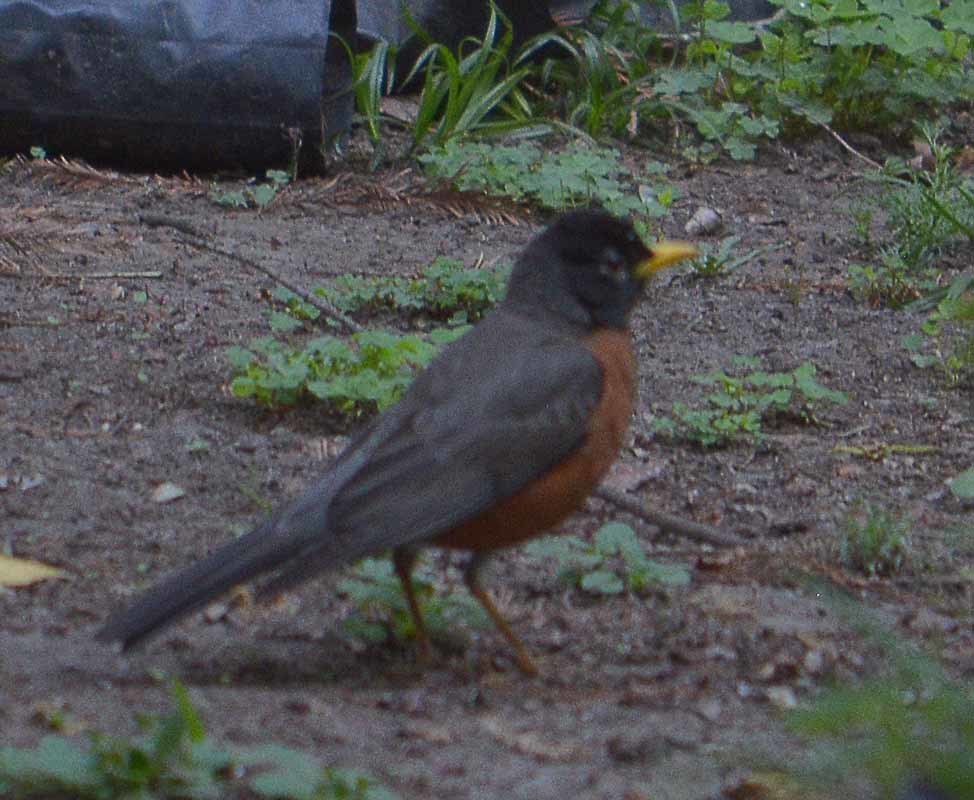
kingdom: Animalia
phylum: Chordata
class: Aves
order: Passeriformes
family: Turdidae
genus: Turdus
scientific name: Turdus migratorius
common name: American robin
